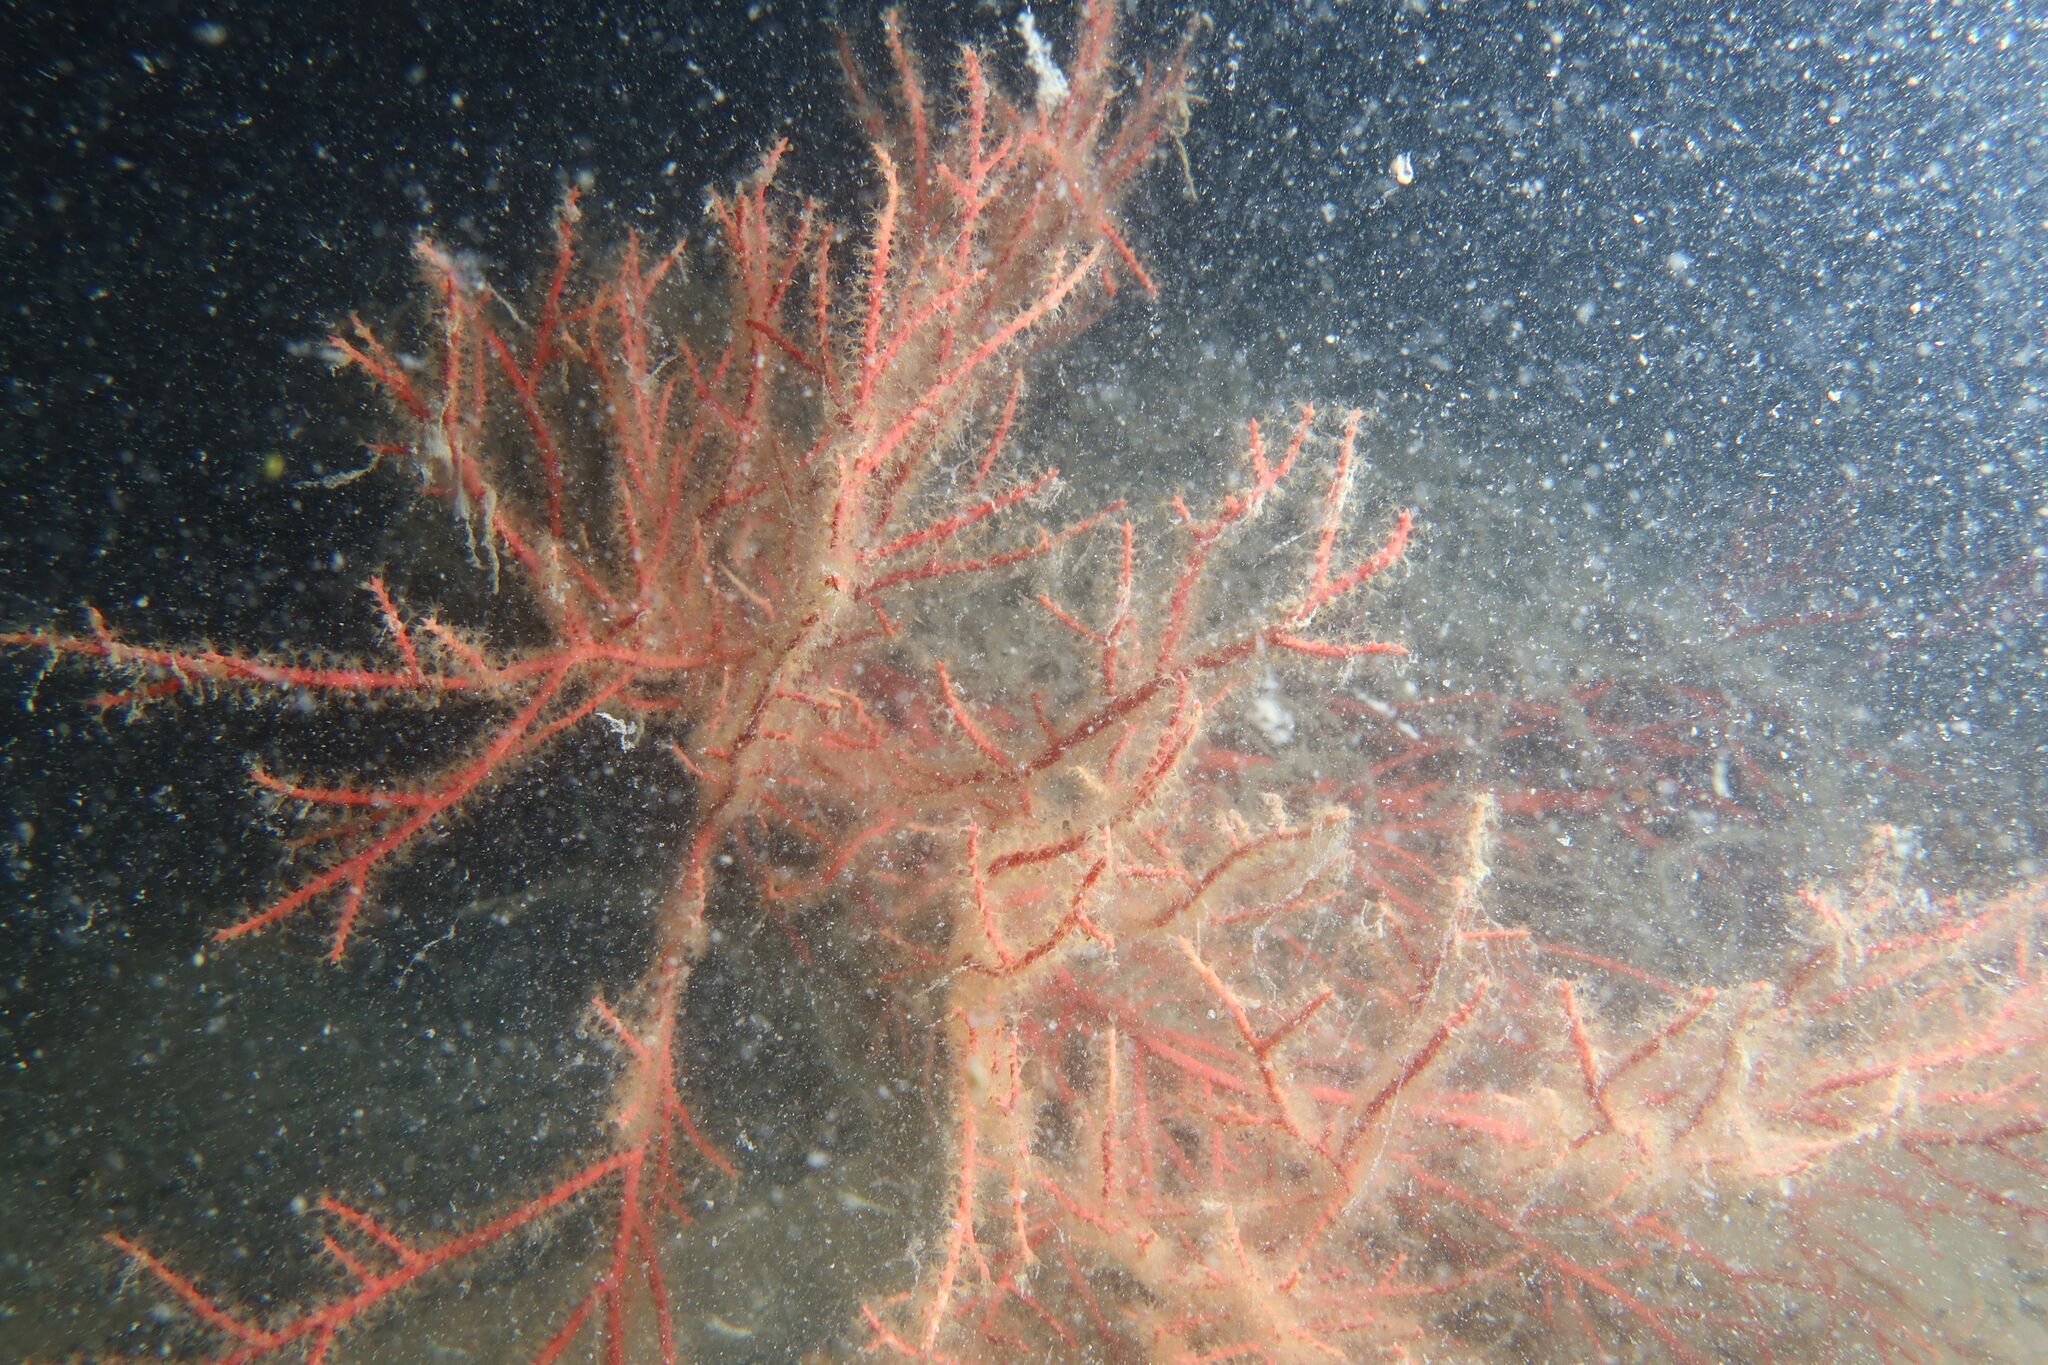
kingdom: Animalia
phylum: Cnidaria
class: Anthozoa
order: Malacalcyonacea
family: Gorgoniidae
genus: Leptogorgia
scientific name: Leptogorgia sarmentosa
